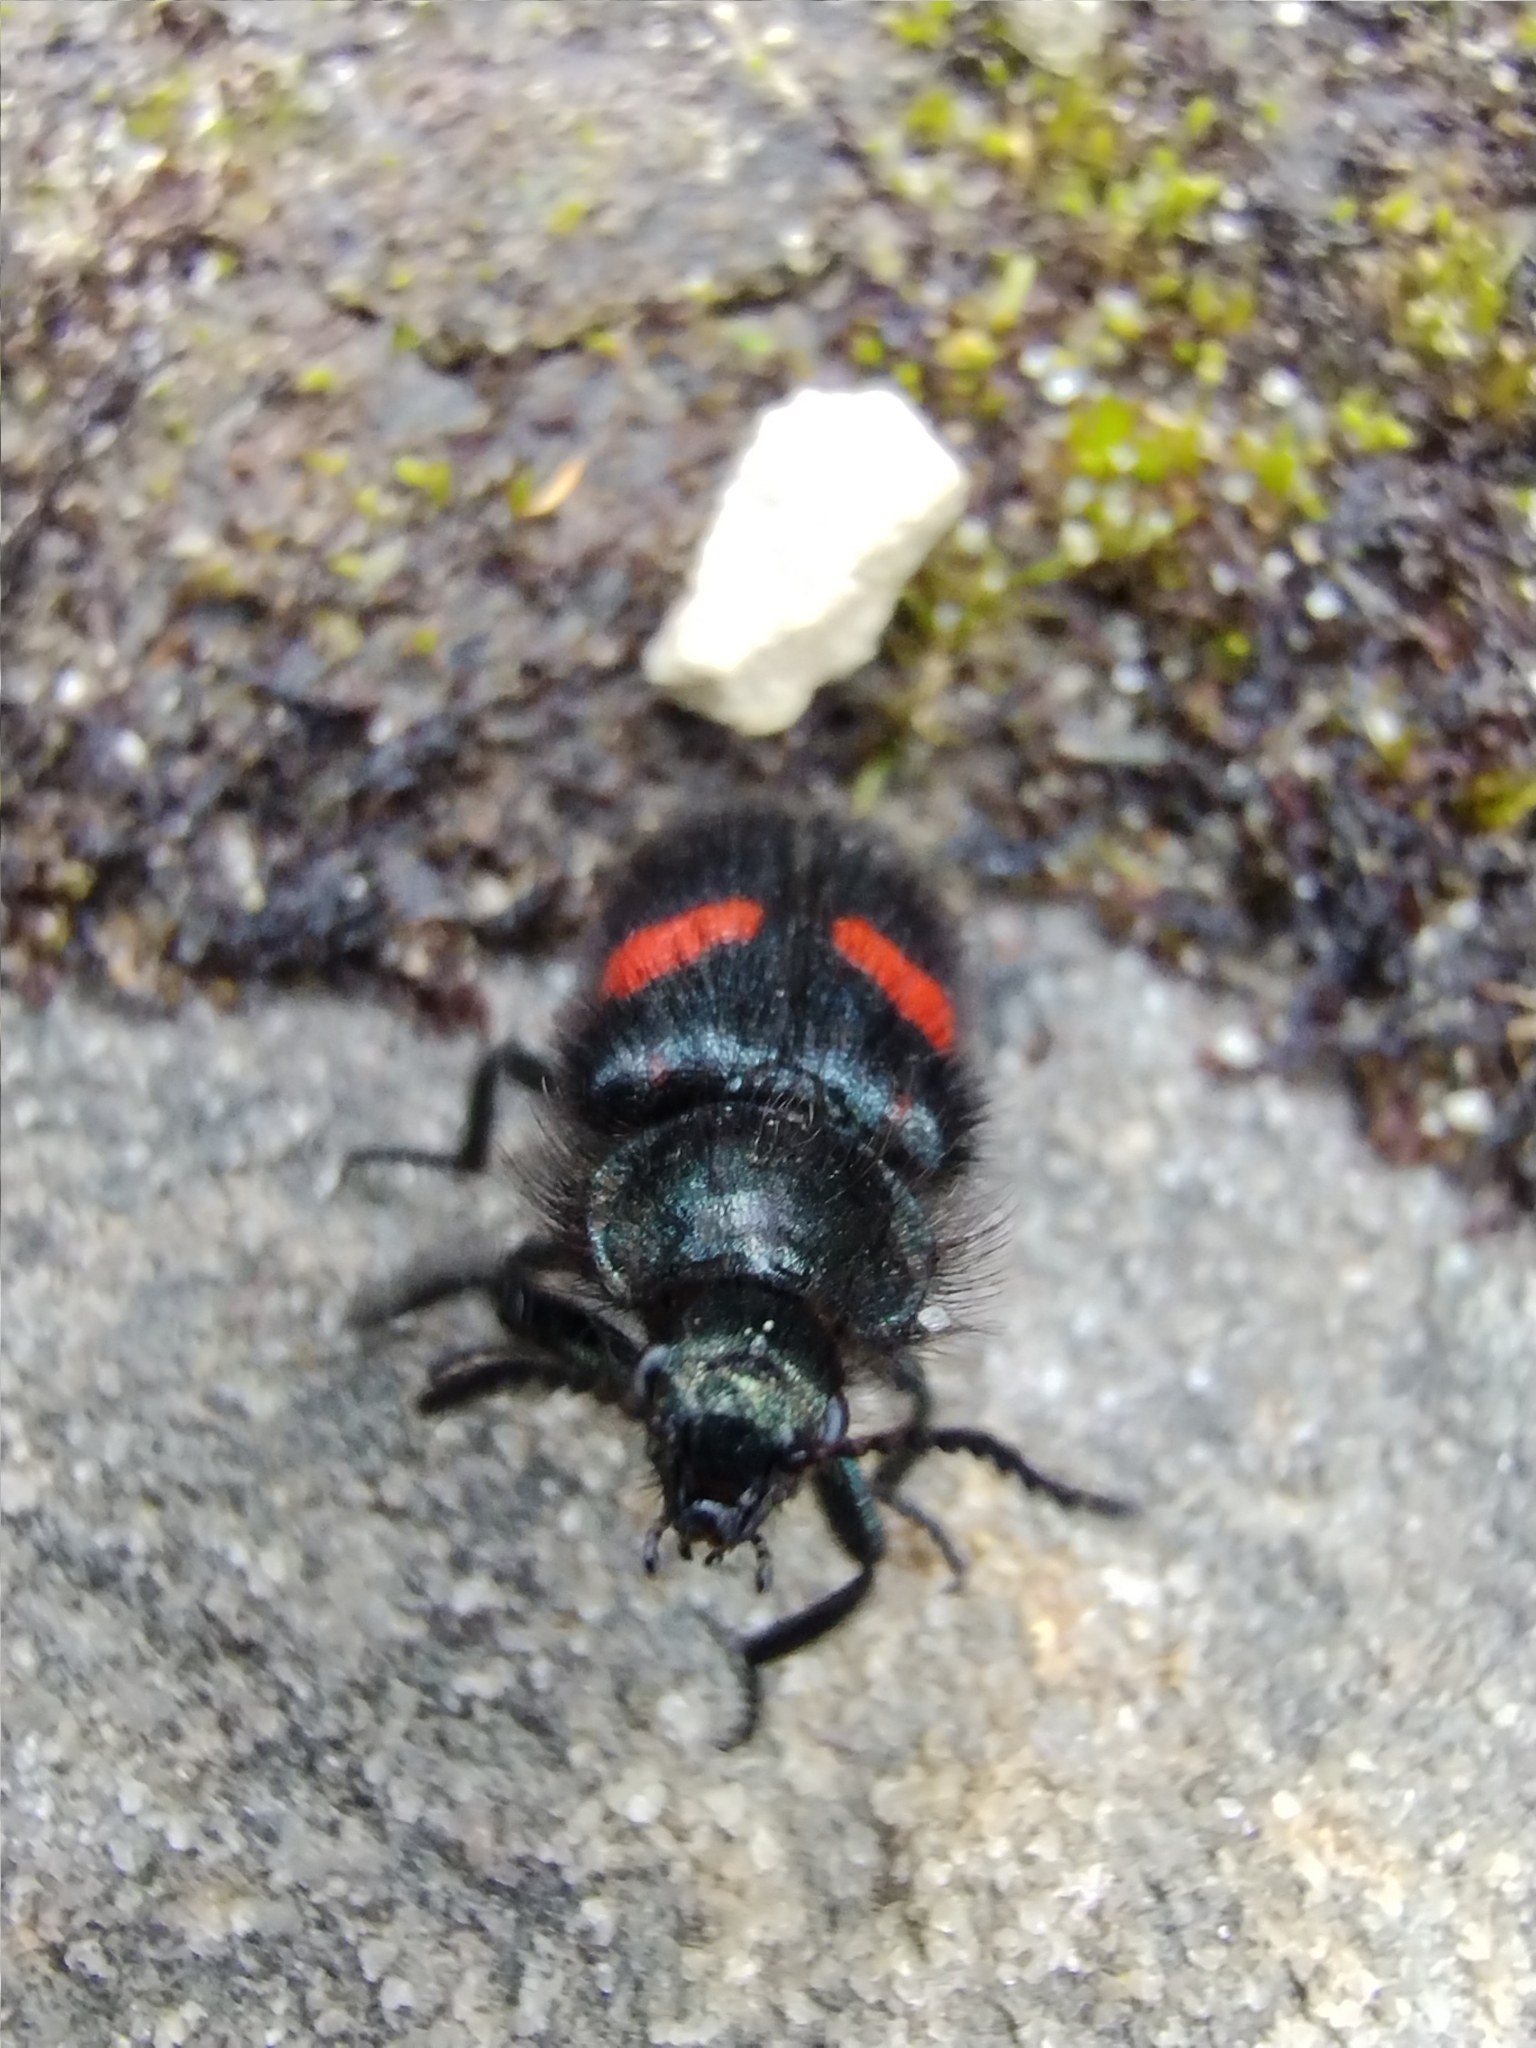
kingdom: Animalia
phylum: Arthropoda
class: Insecta
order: Coleoptera
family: Melyridae
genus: Astylus
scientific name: Astylus
